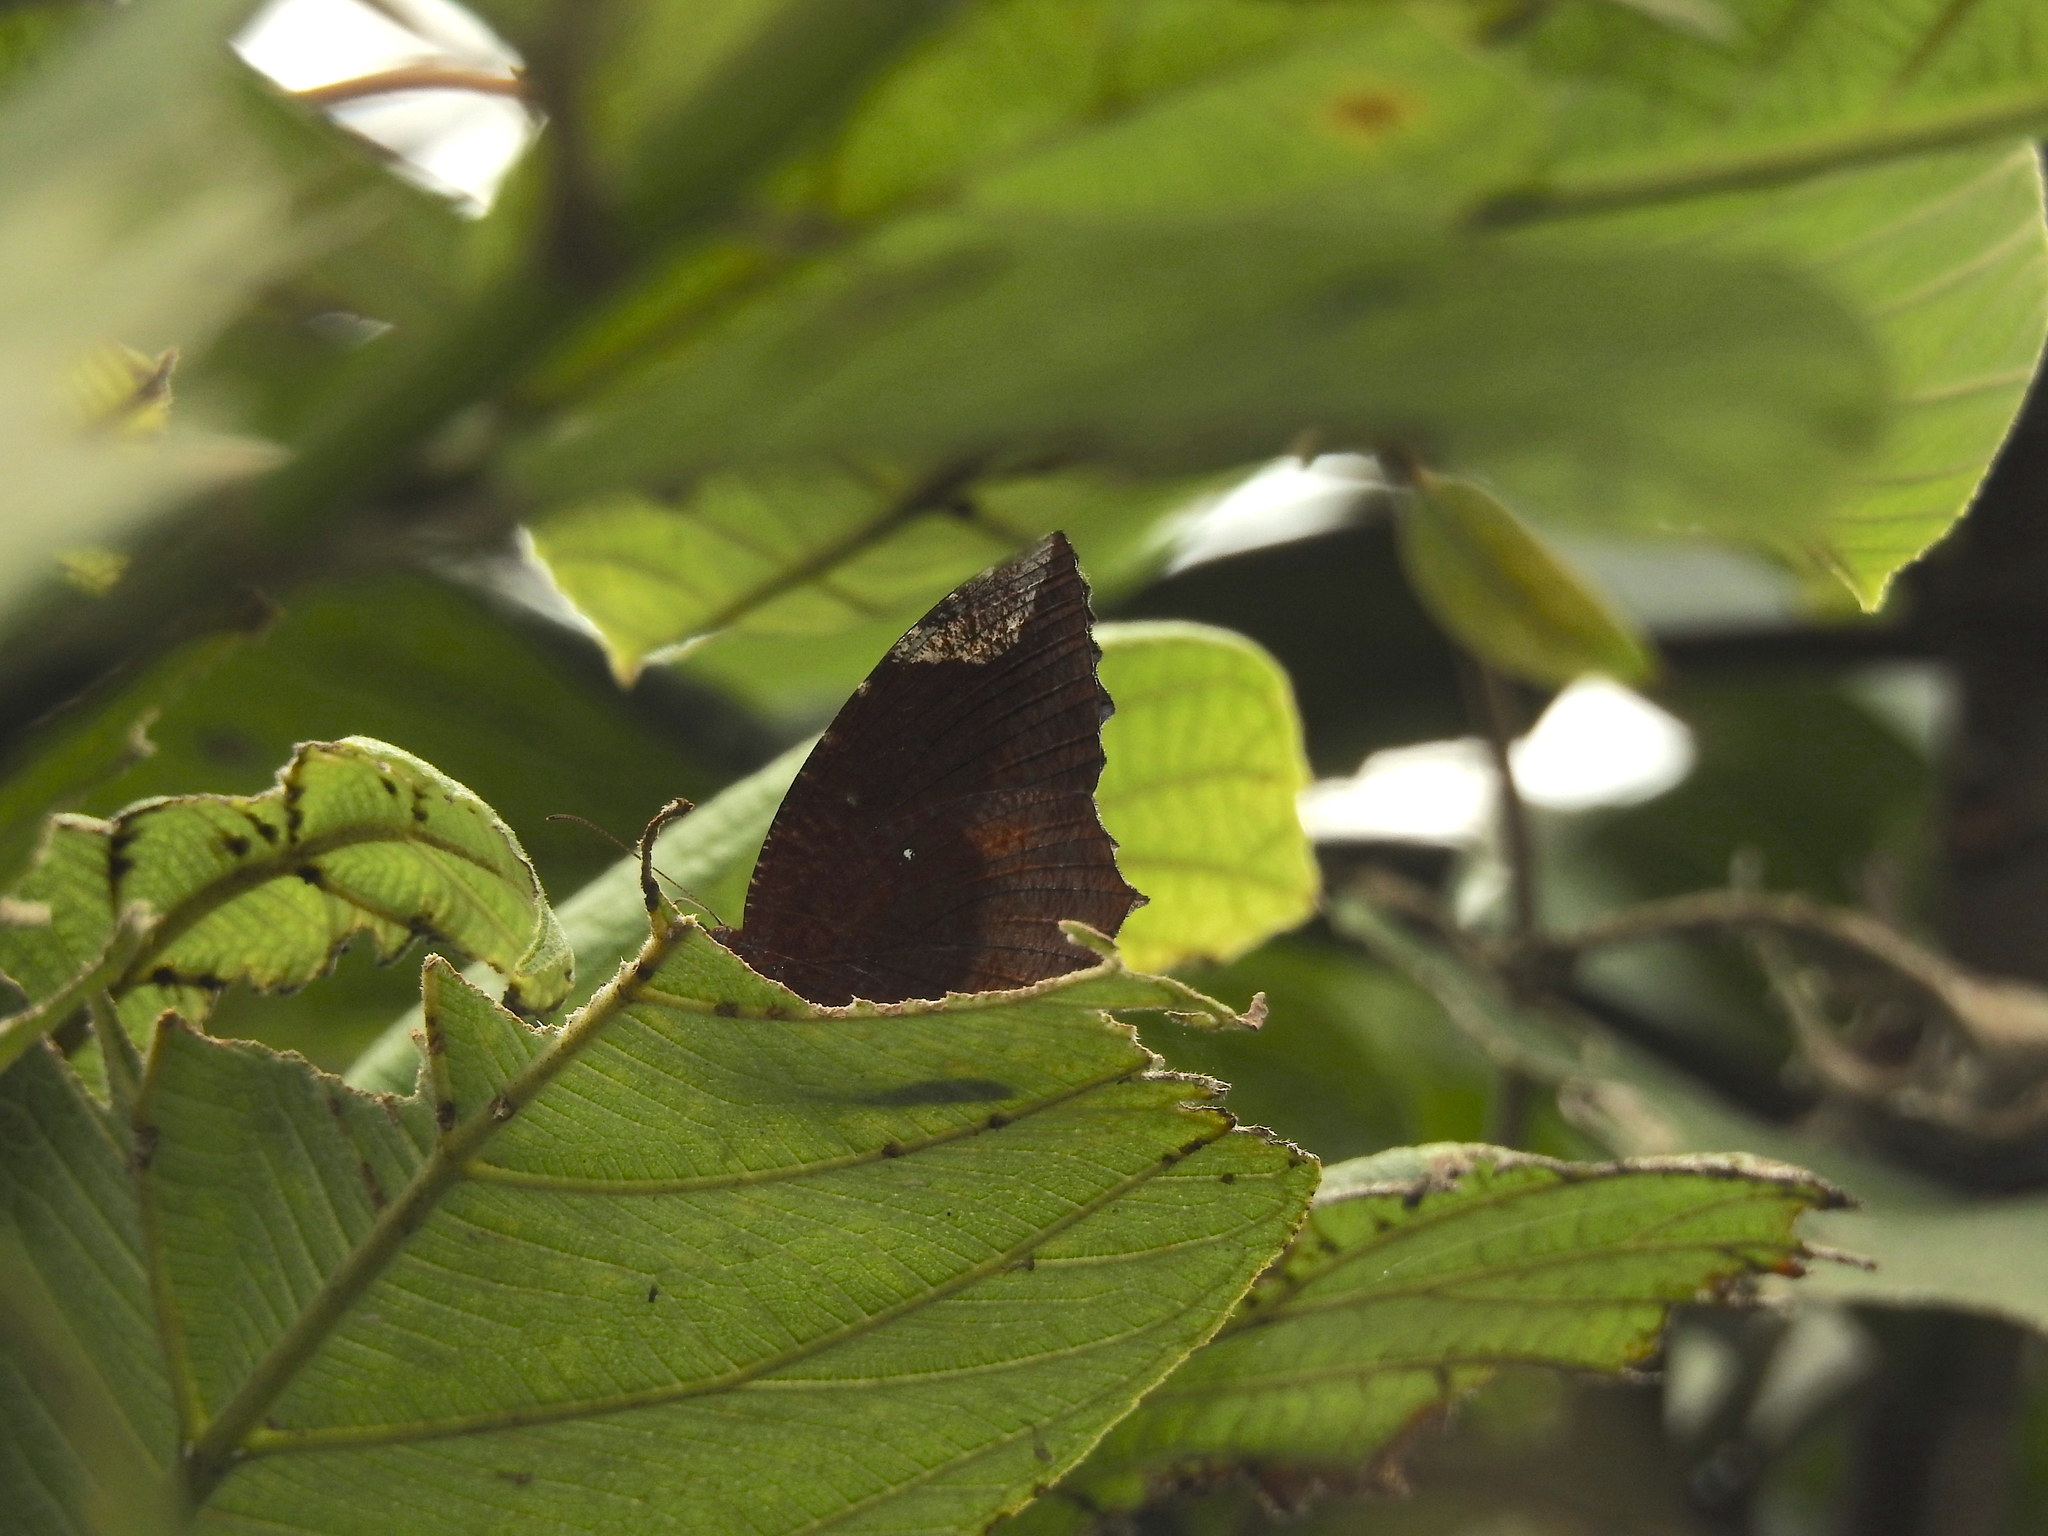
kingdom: Animalia
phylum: Arthropoda
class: Insecta
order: Lepidoptera
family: Nymphalidae
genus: Elymnias
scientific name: Elymnias hypermnestra
